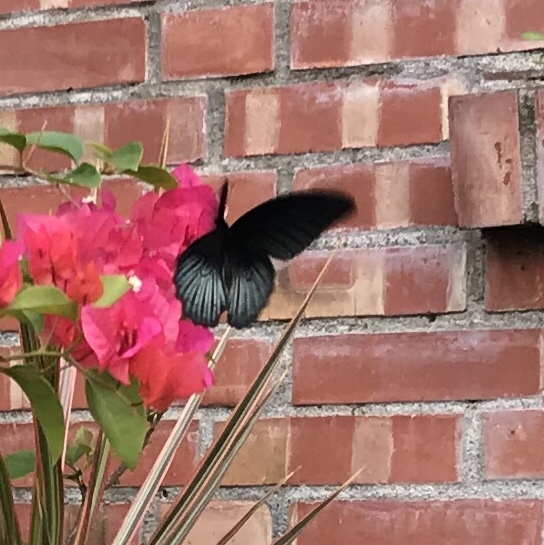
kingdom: Animalia
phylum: Arthropoda
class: Insecta
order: Lepidoptera
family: Papilionidae
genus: Papilio
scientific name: Papilio memnon
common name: Great mormon
